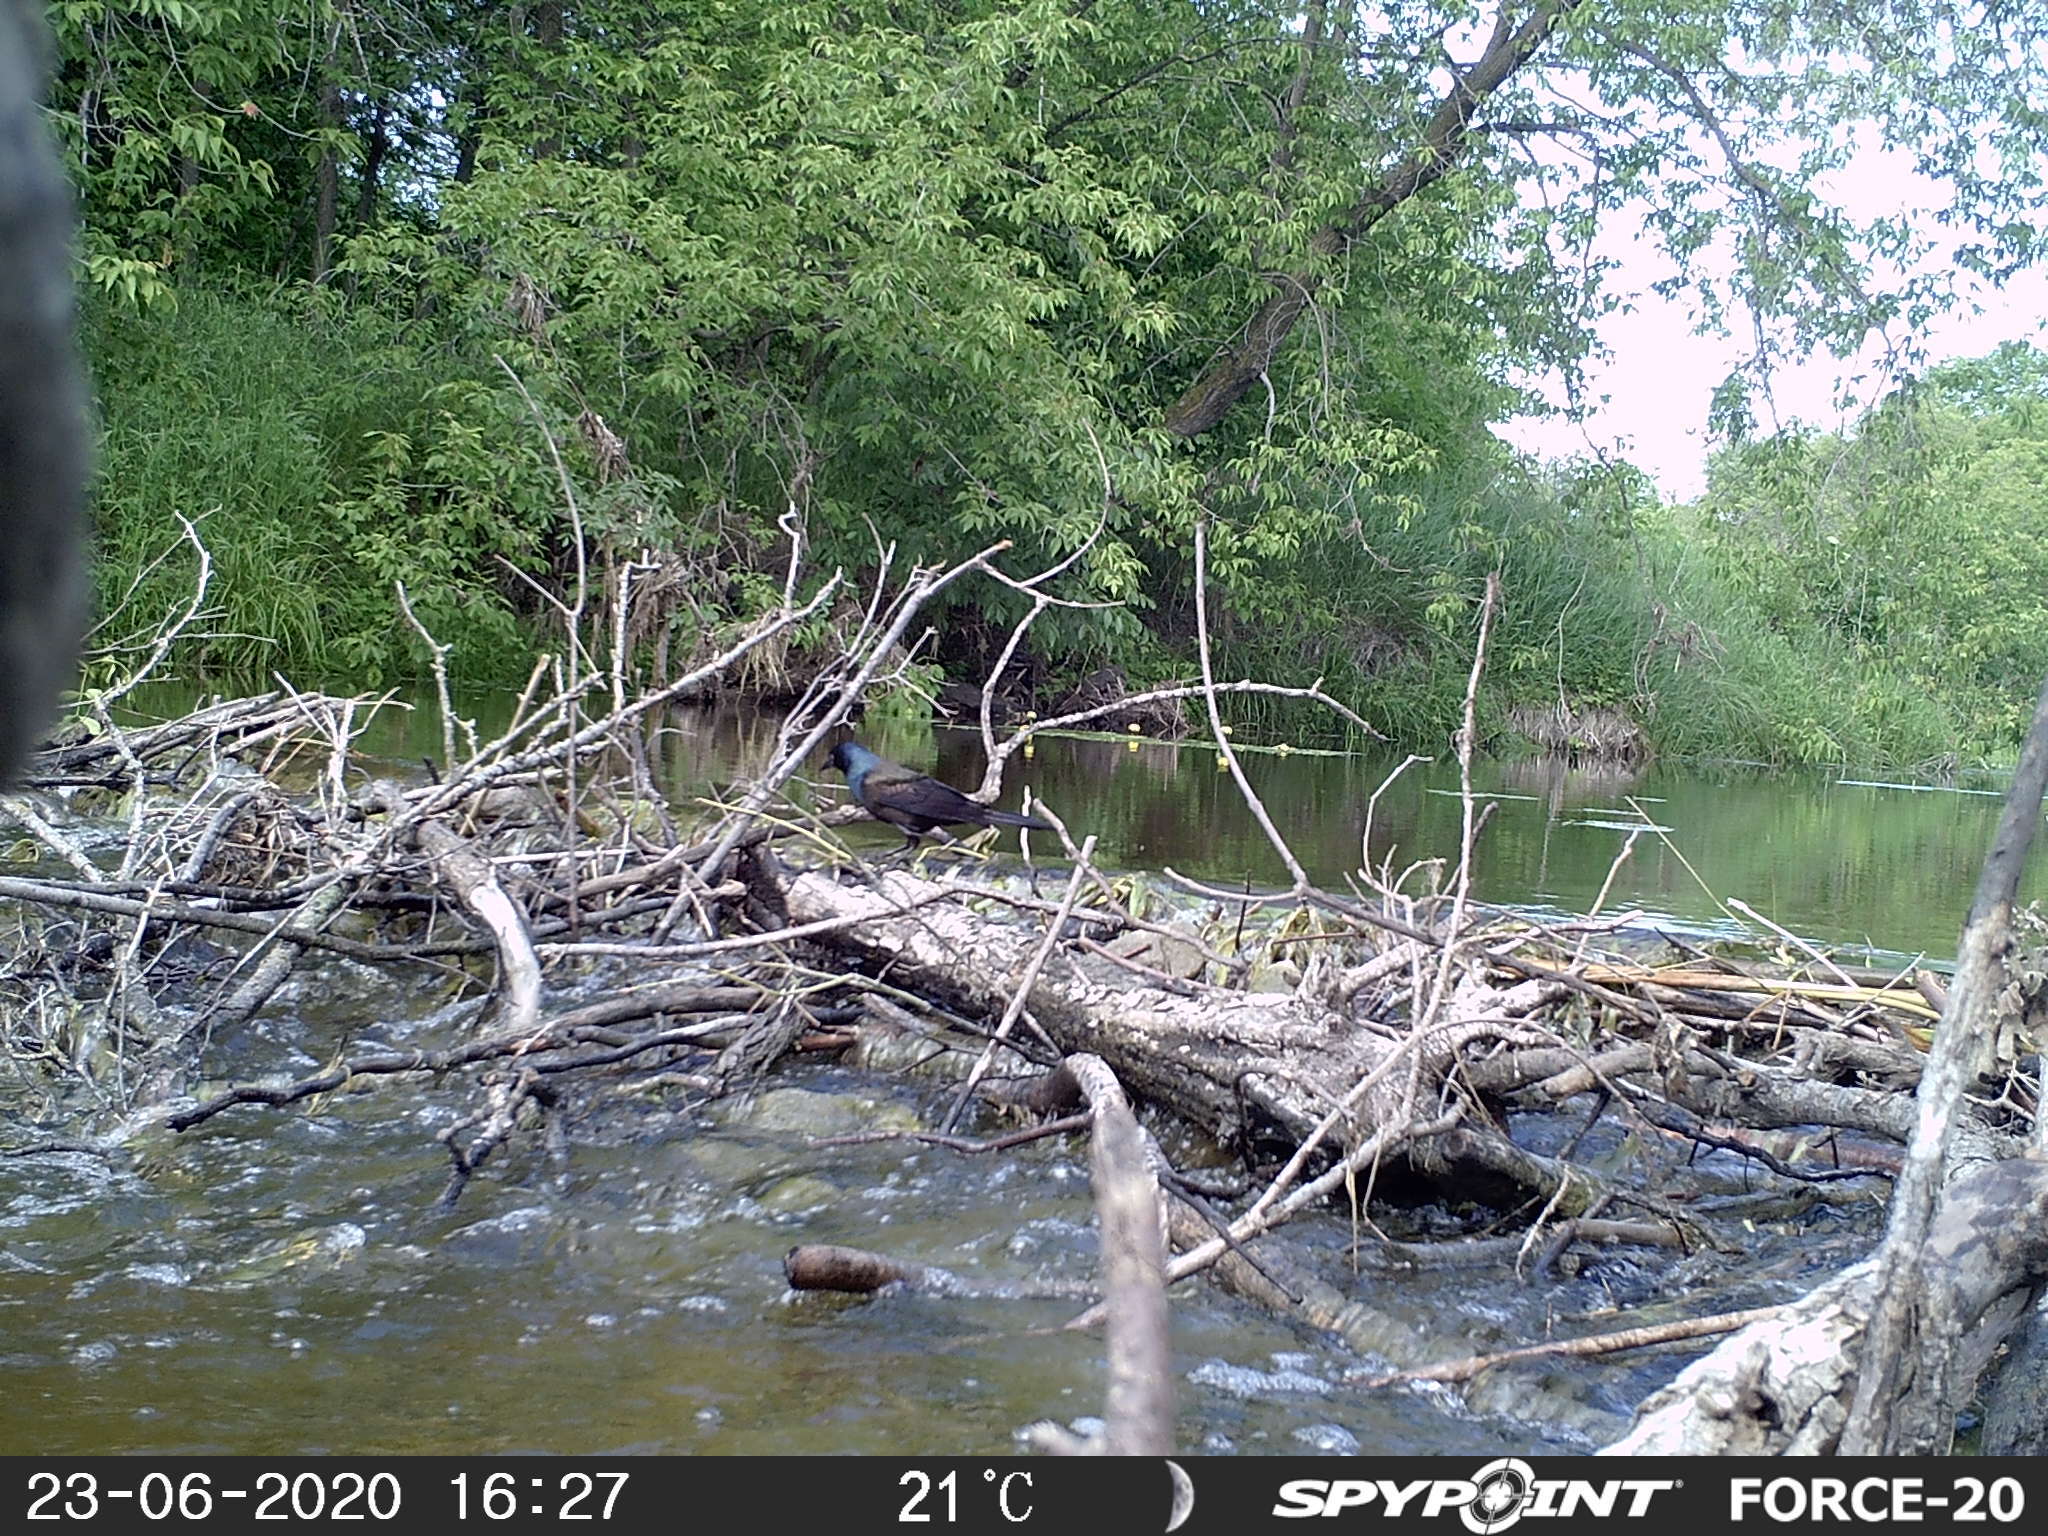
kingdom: Animalia
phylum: Chordata
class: Aves
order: Passeriformes
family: Icteridae
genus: Quiscalus
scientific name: Quiscalus quiscula
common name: Common grackle
